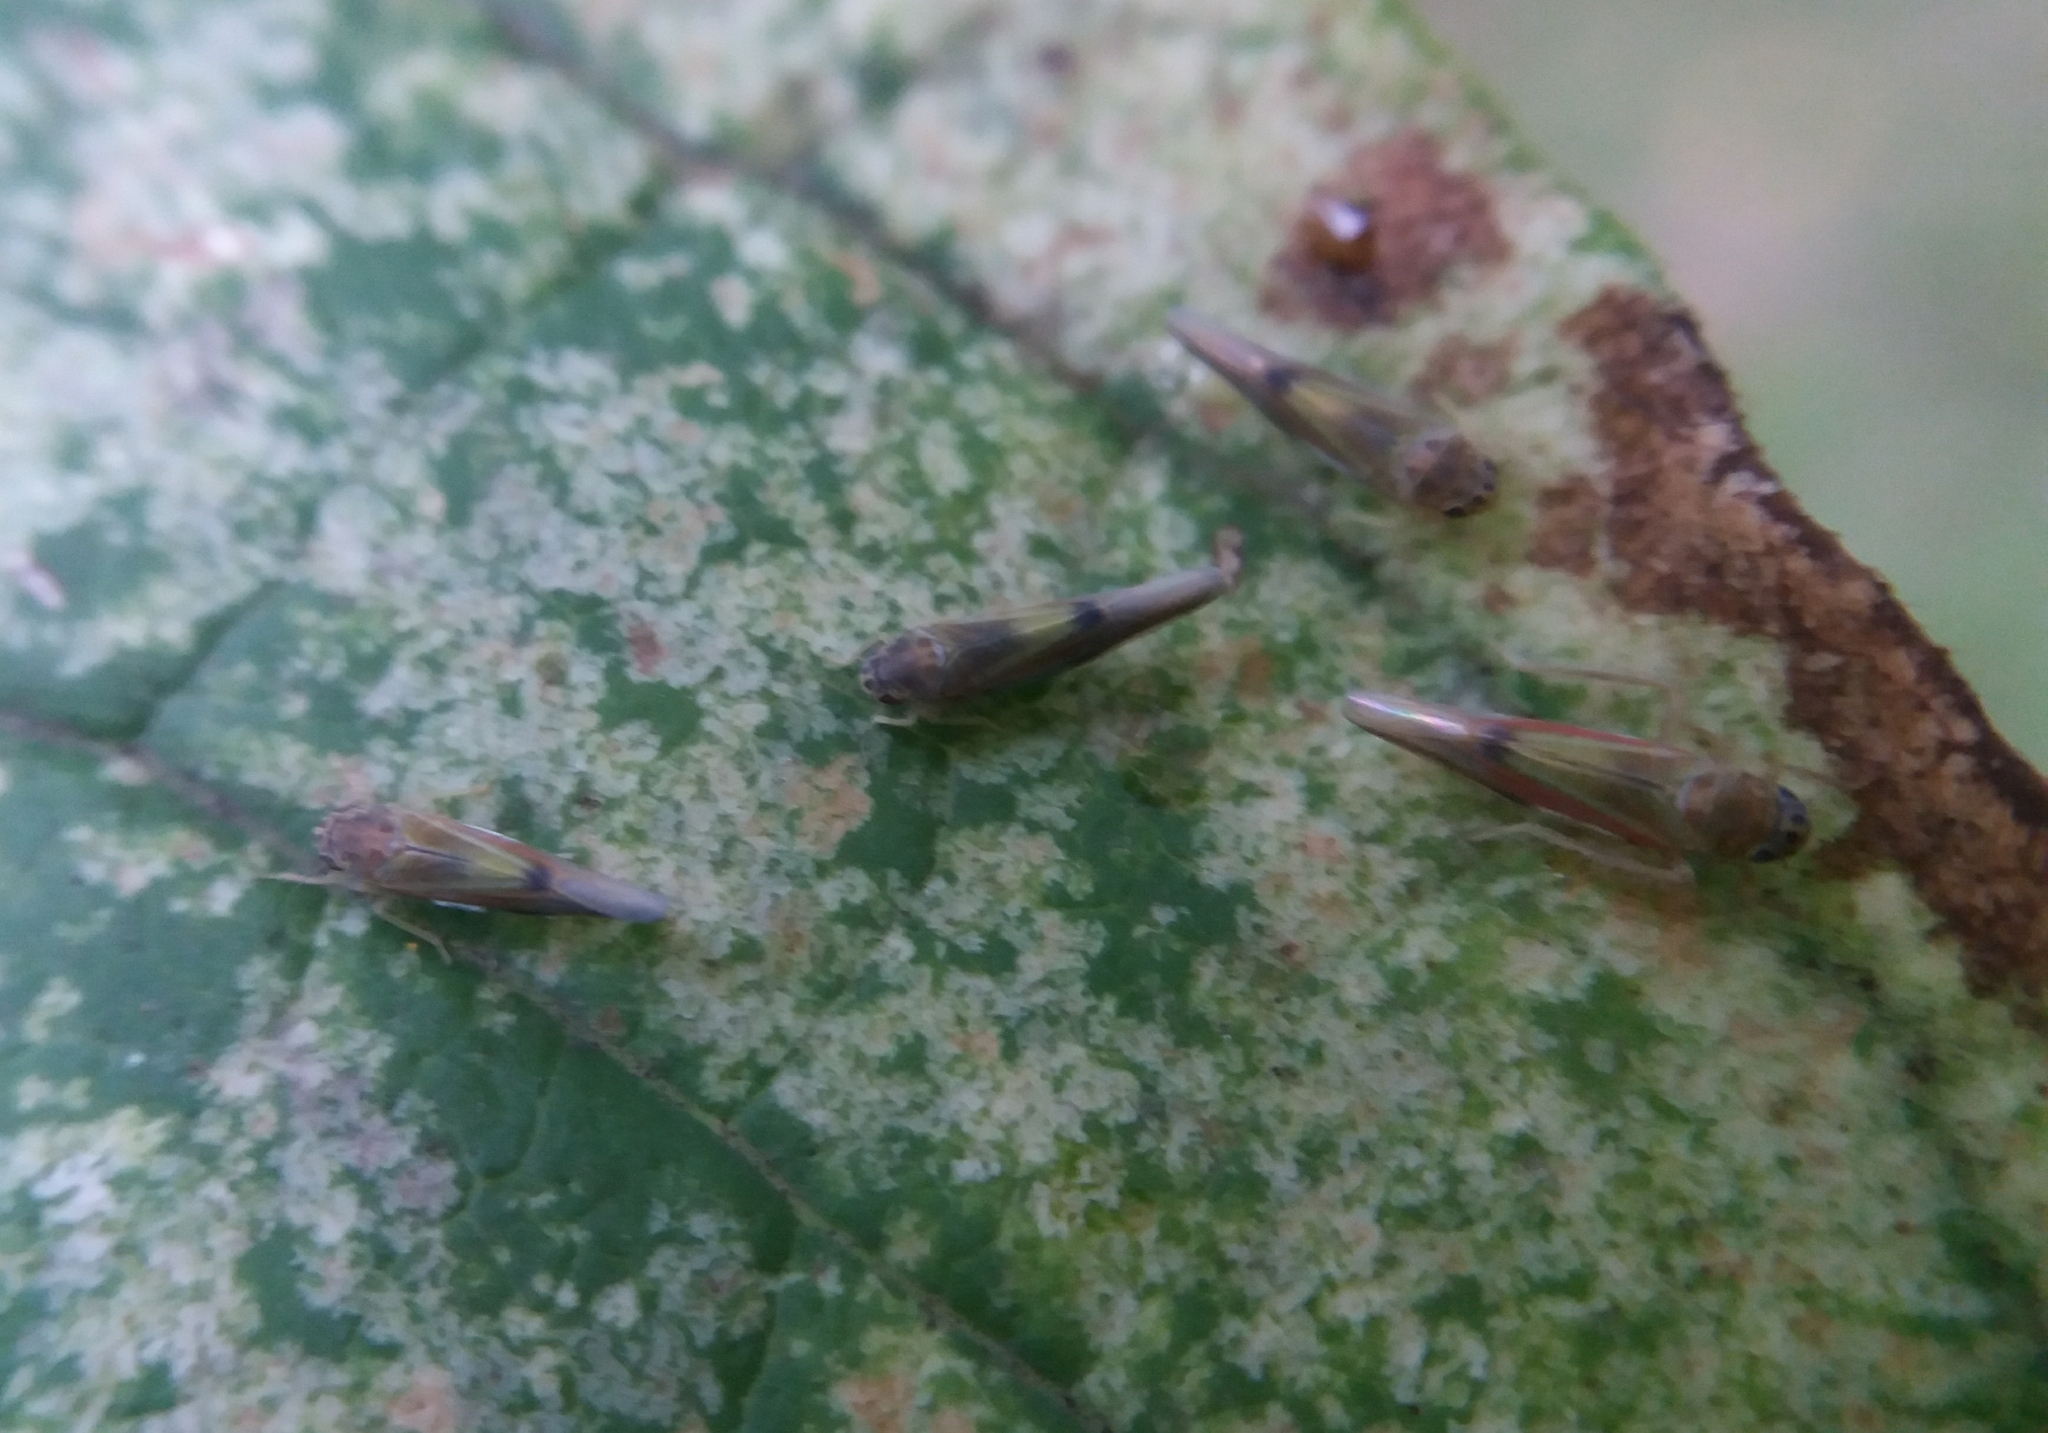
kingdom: Animalia
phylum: Arthropoda
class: Insecta
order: Hemiptera
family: Cicadellidae
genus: Vilbasteana
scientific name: Vilbasteana oculata
